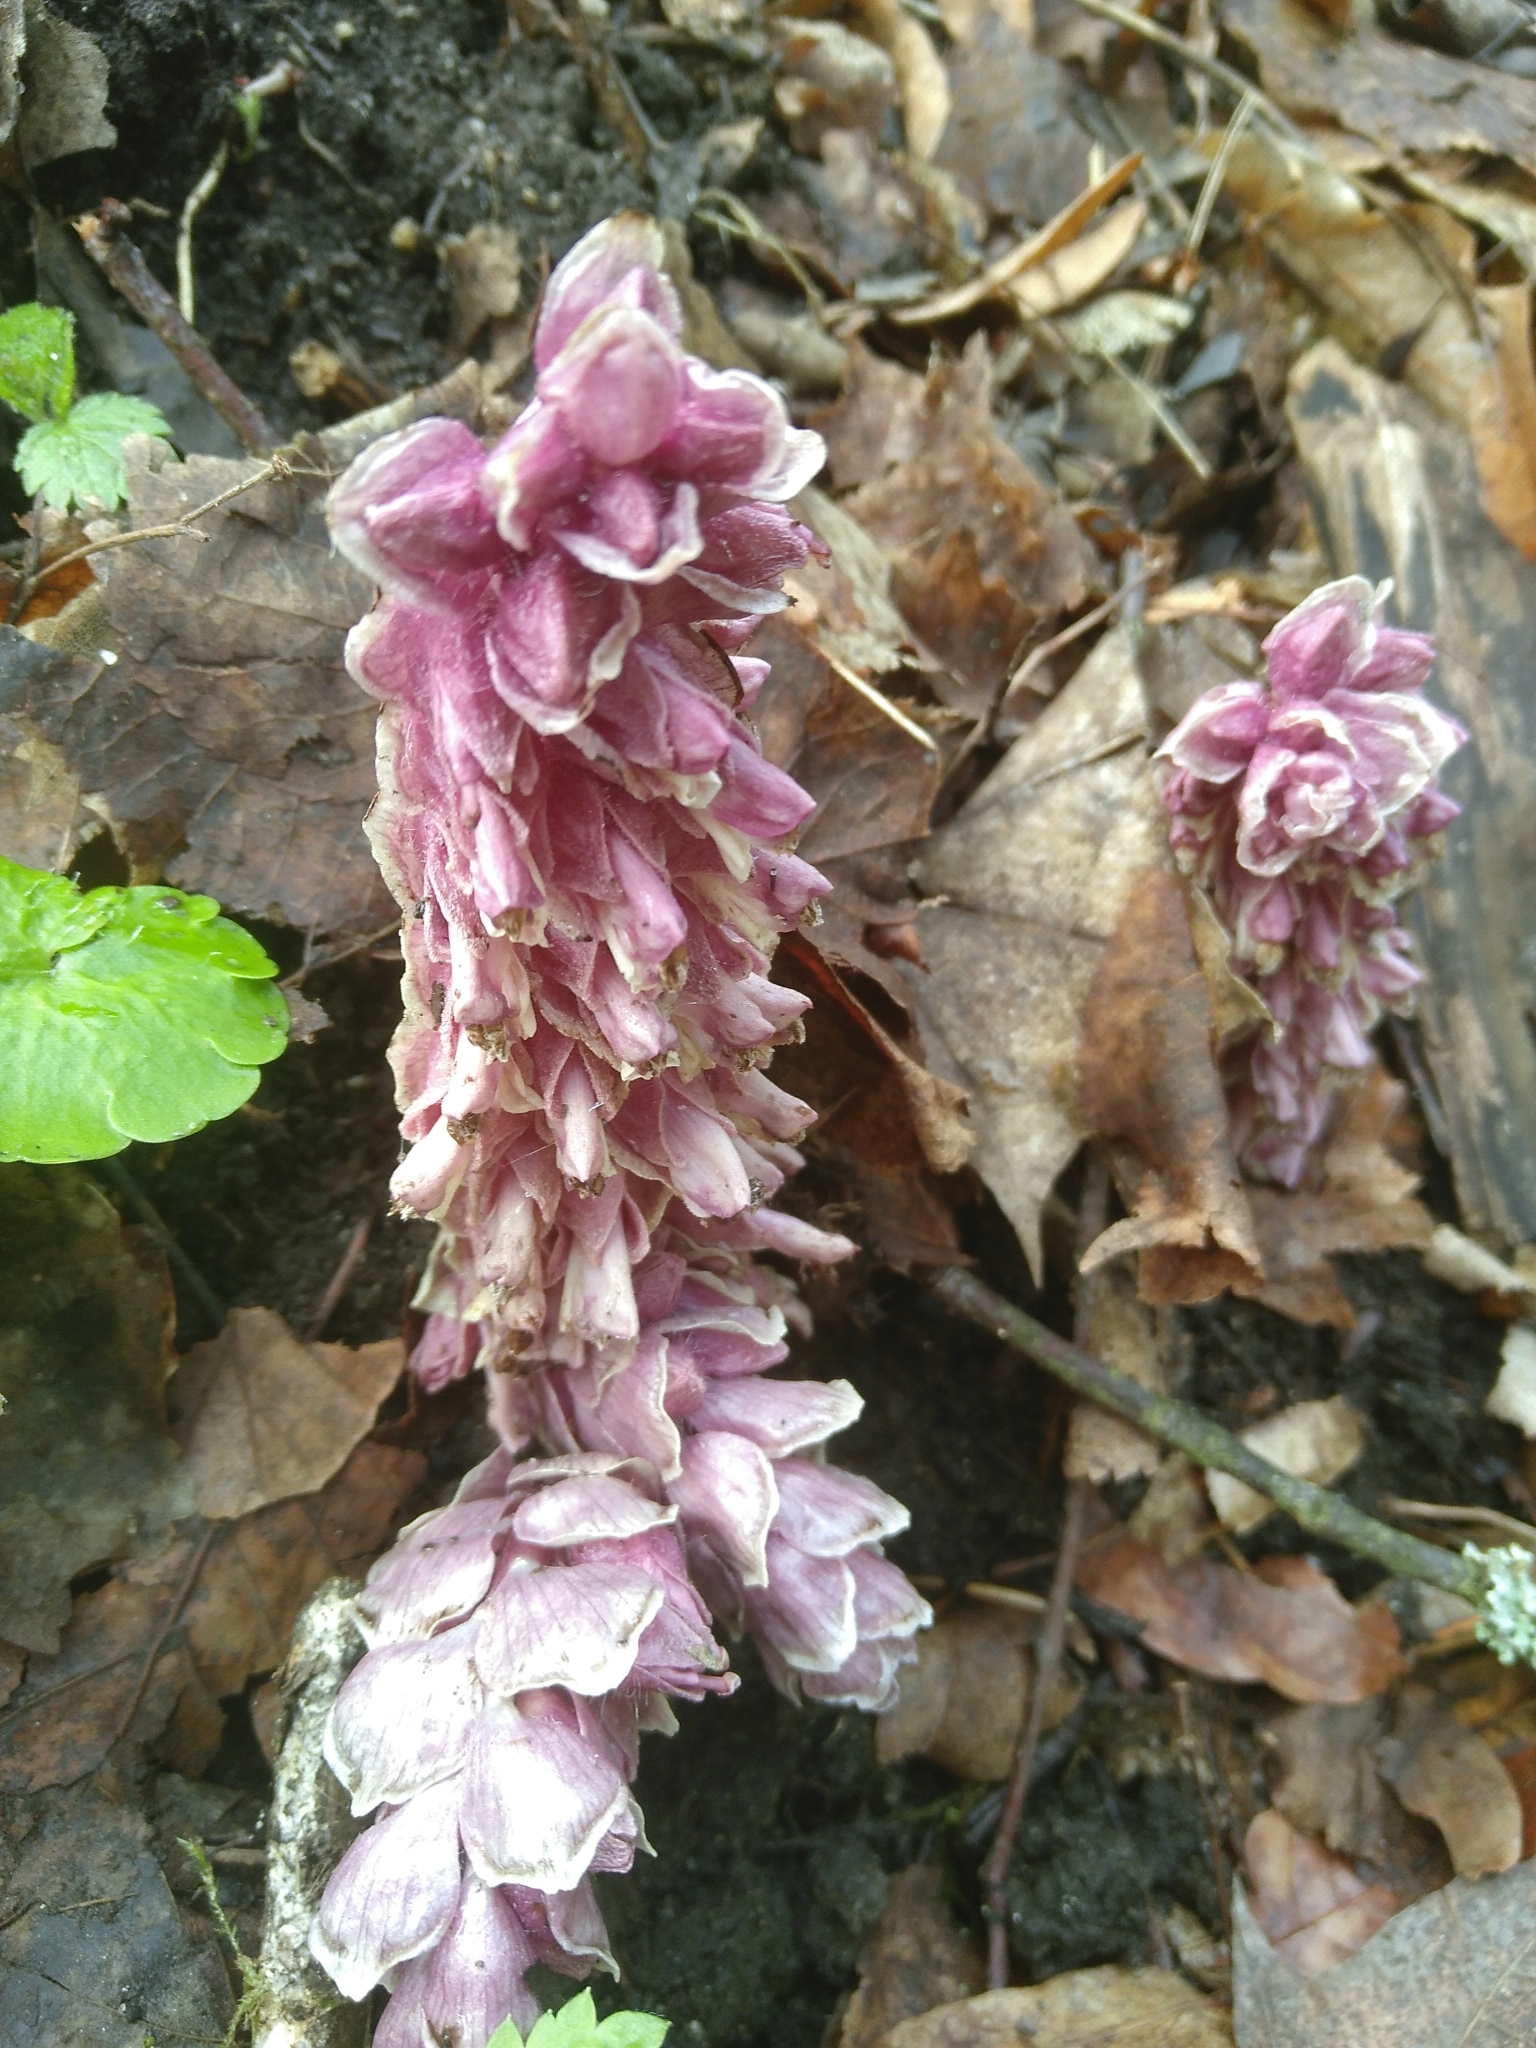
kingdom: Plantae
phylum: Tracheophyta
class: Magnoliopsida
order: Lamiales
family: Orobanchaceae
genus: Lathraea
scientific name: Lathraea squamaria
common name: Toothwort
